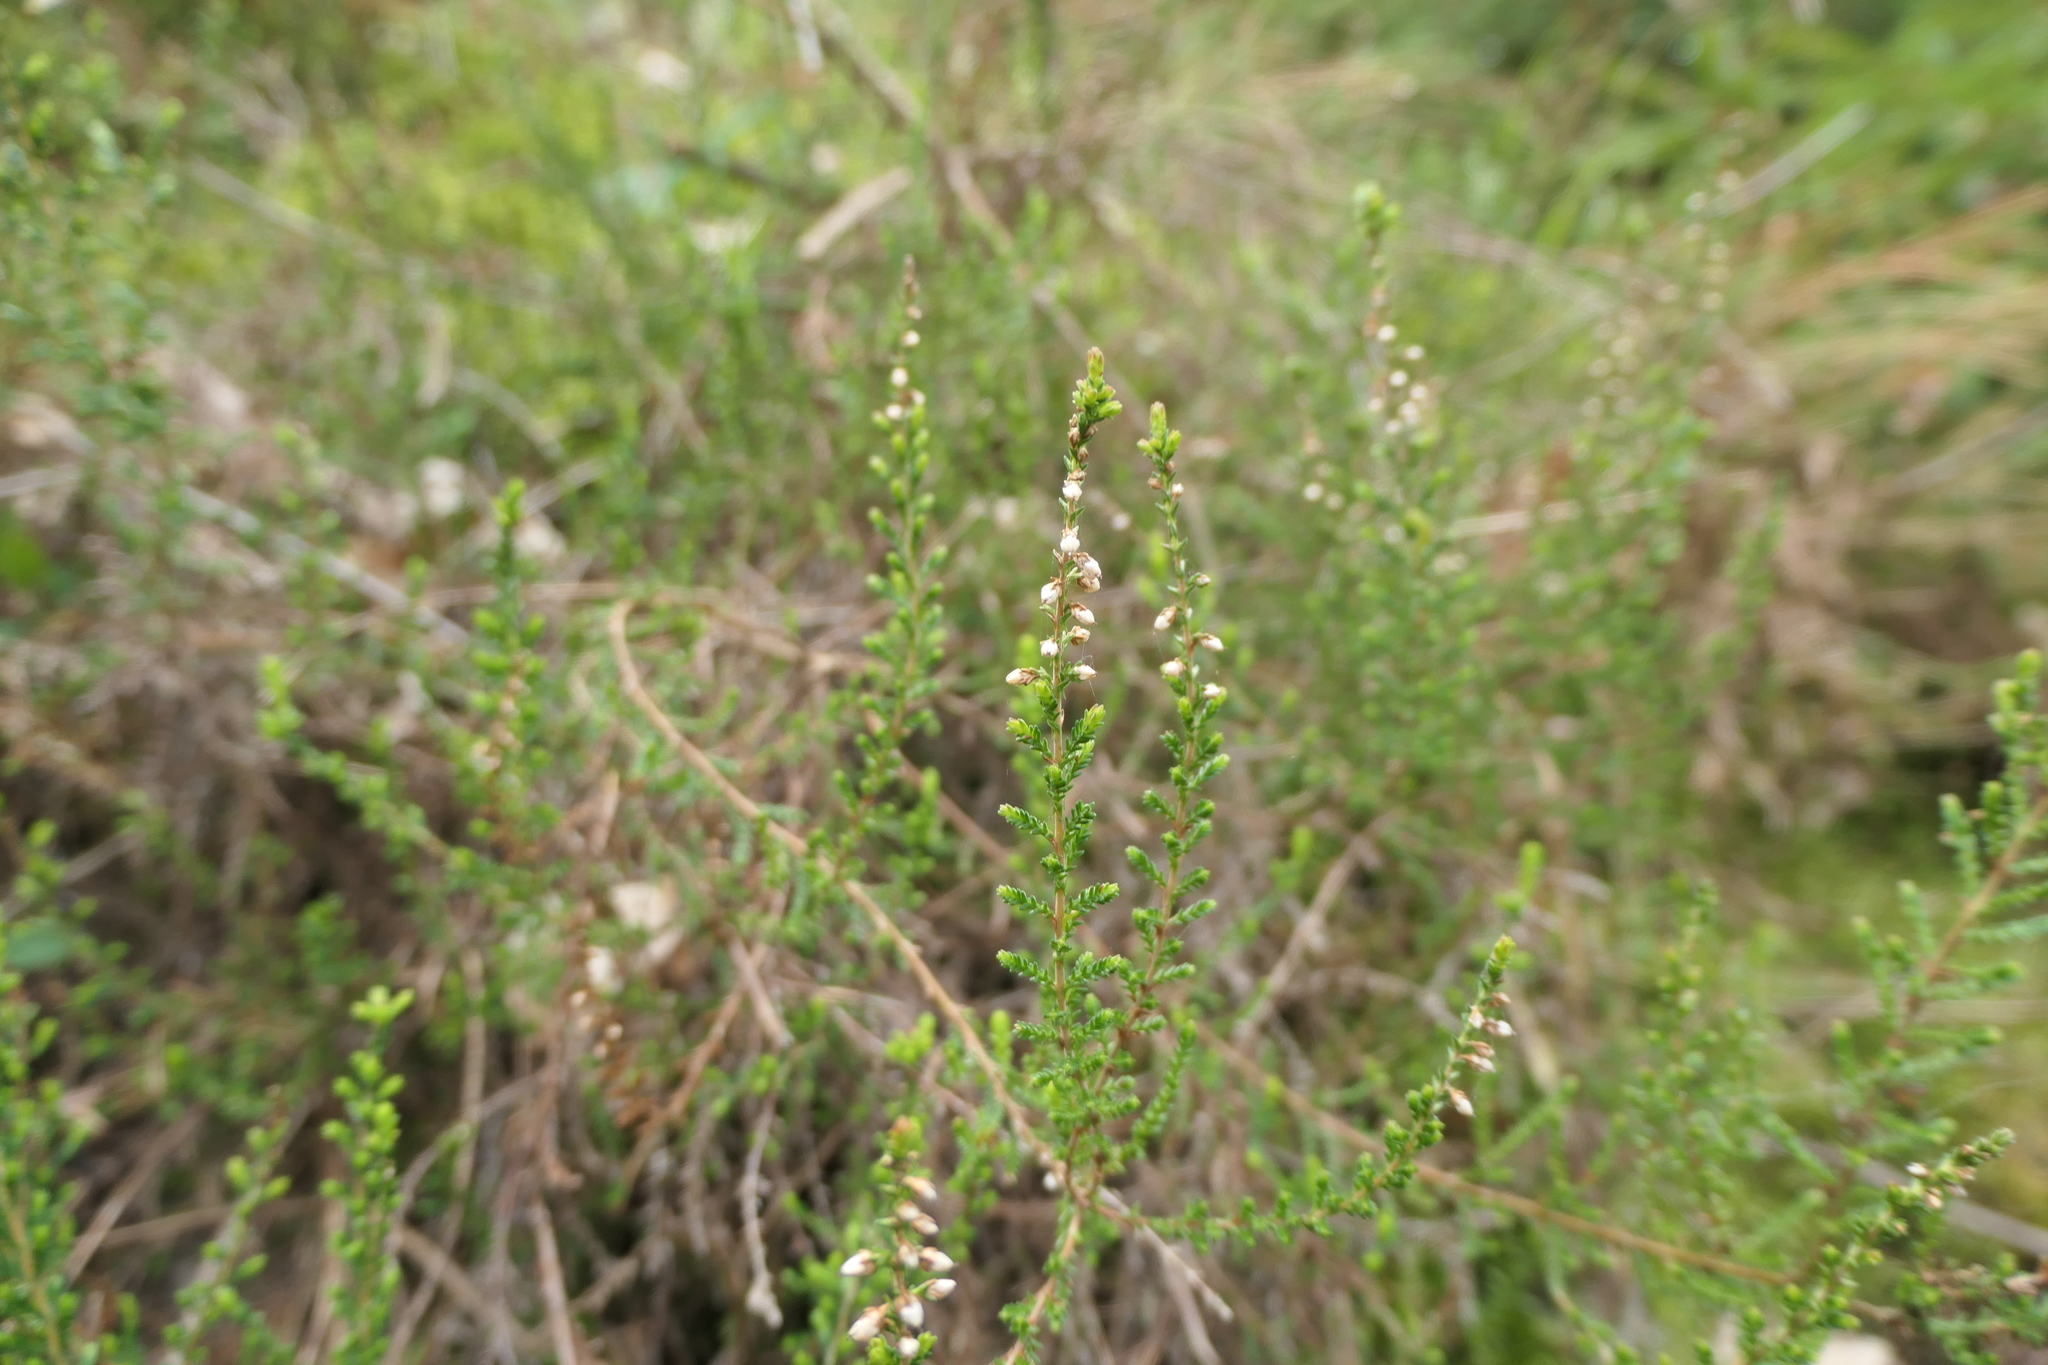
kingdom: Plantae
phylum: Tracheophyta
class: Magnoliopsida
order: Ericales
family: Ericaceae
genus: Calluna
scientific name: Calluna vulgaris
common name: Heather
